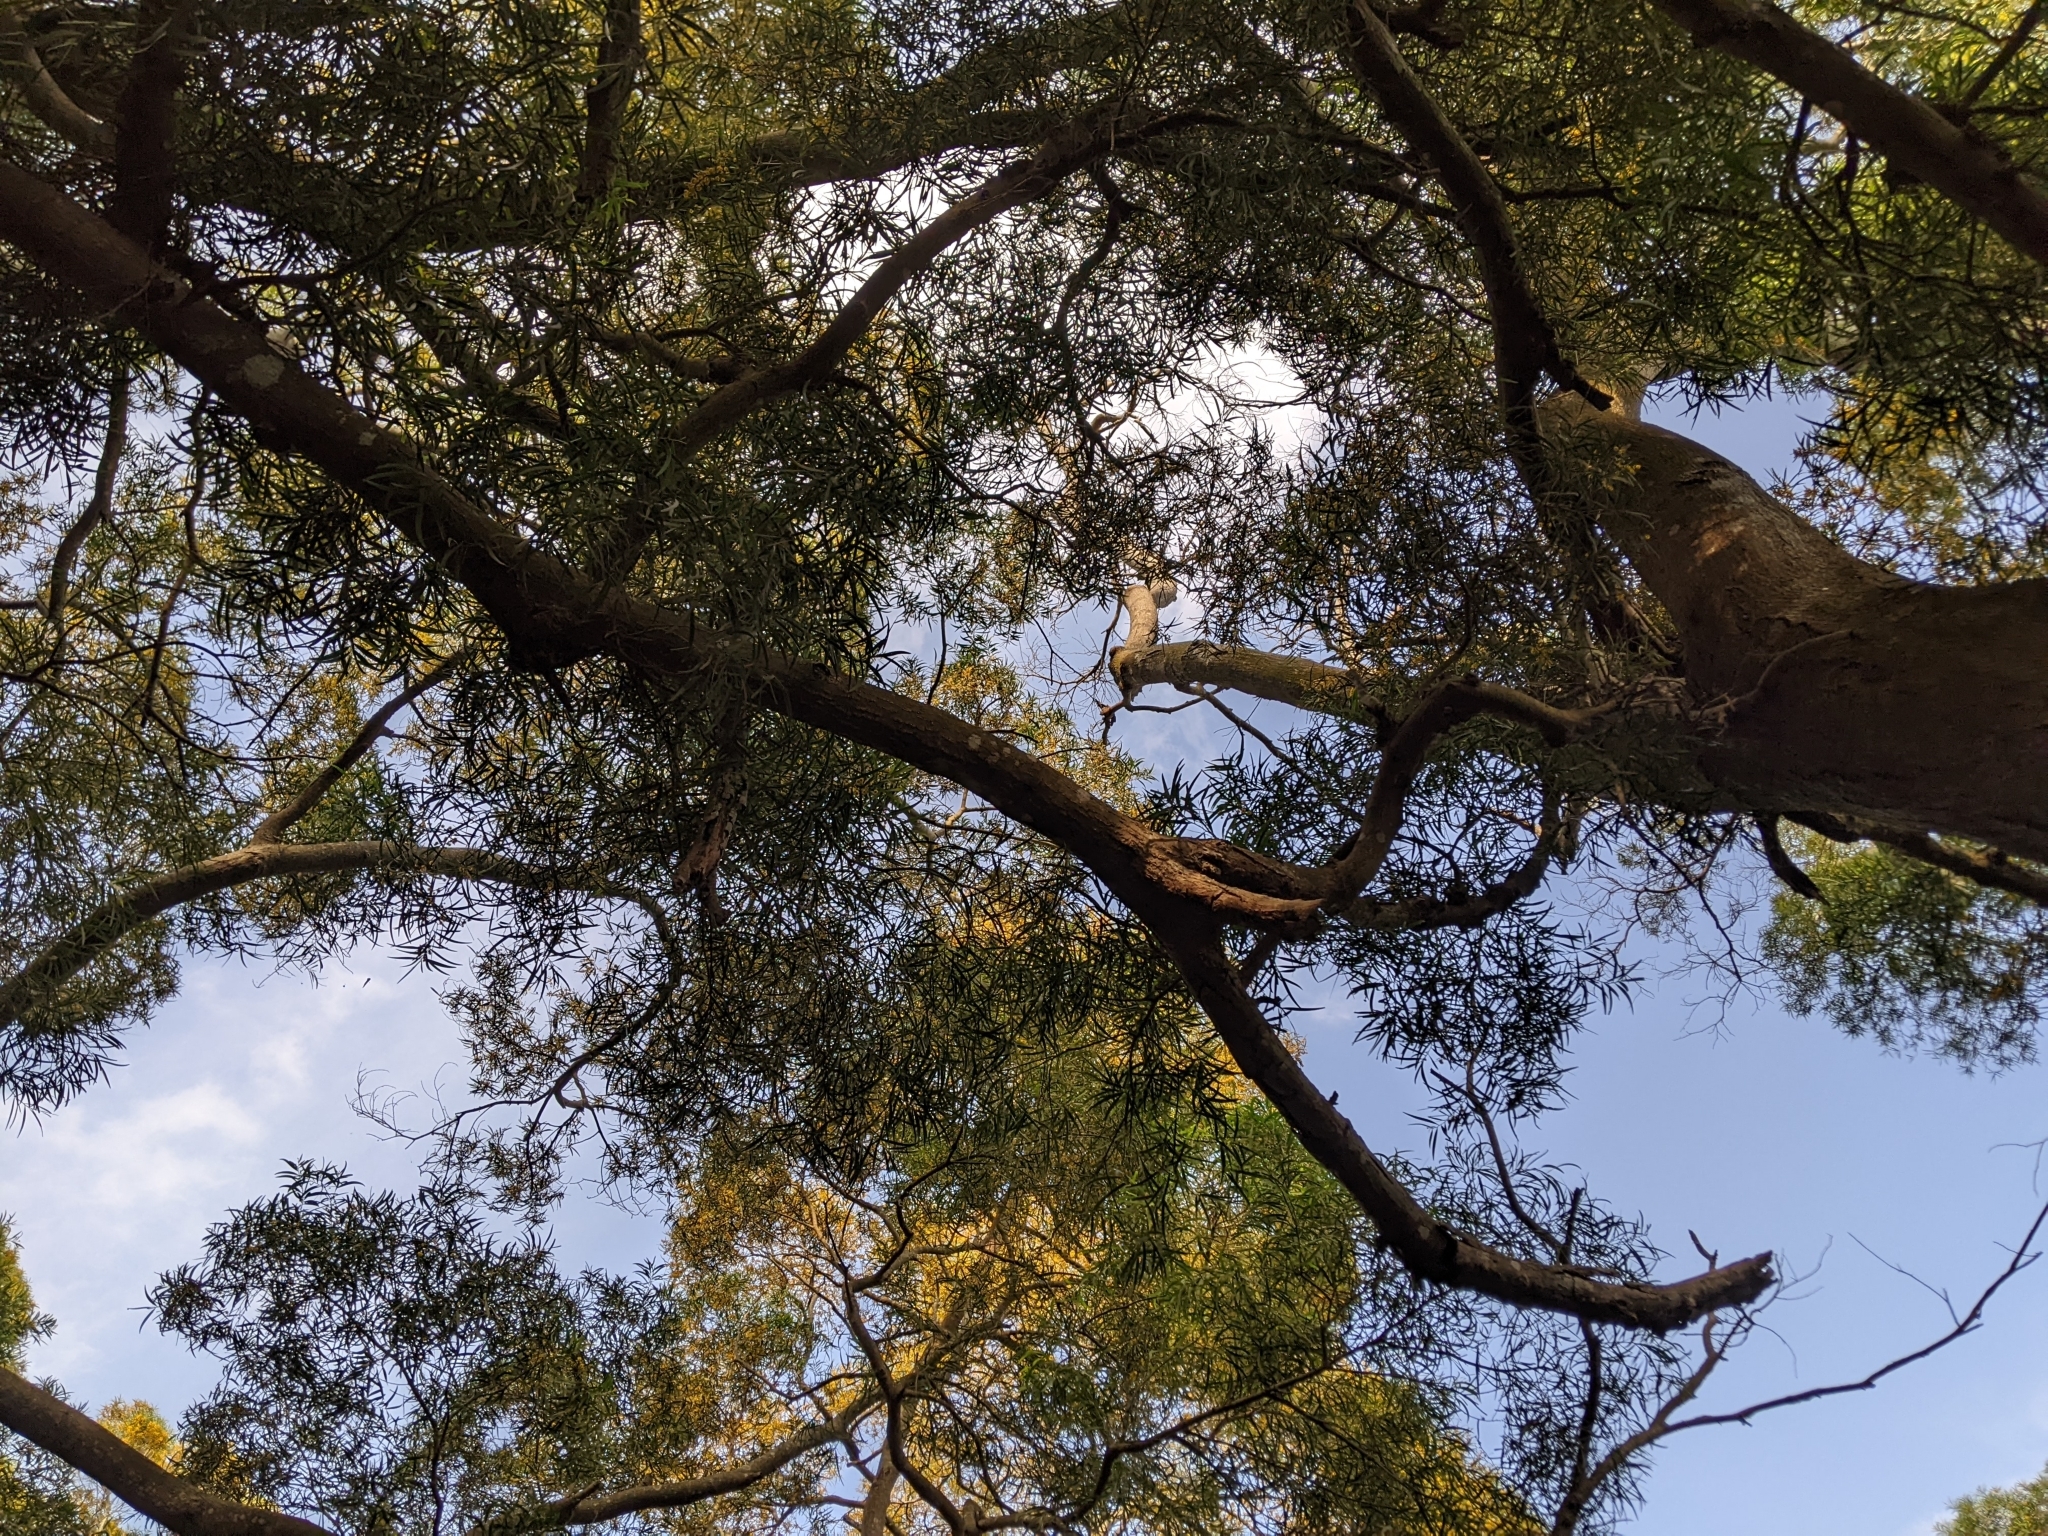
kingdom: Plantae
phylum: Tracheophyta
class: Magnoliopsida
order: Fabales
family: Fabaceae
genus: Acacia
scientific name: Acacia confusa
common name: Formosan koa
